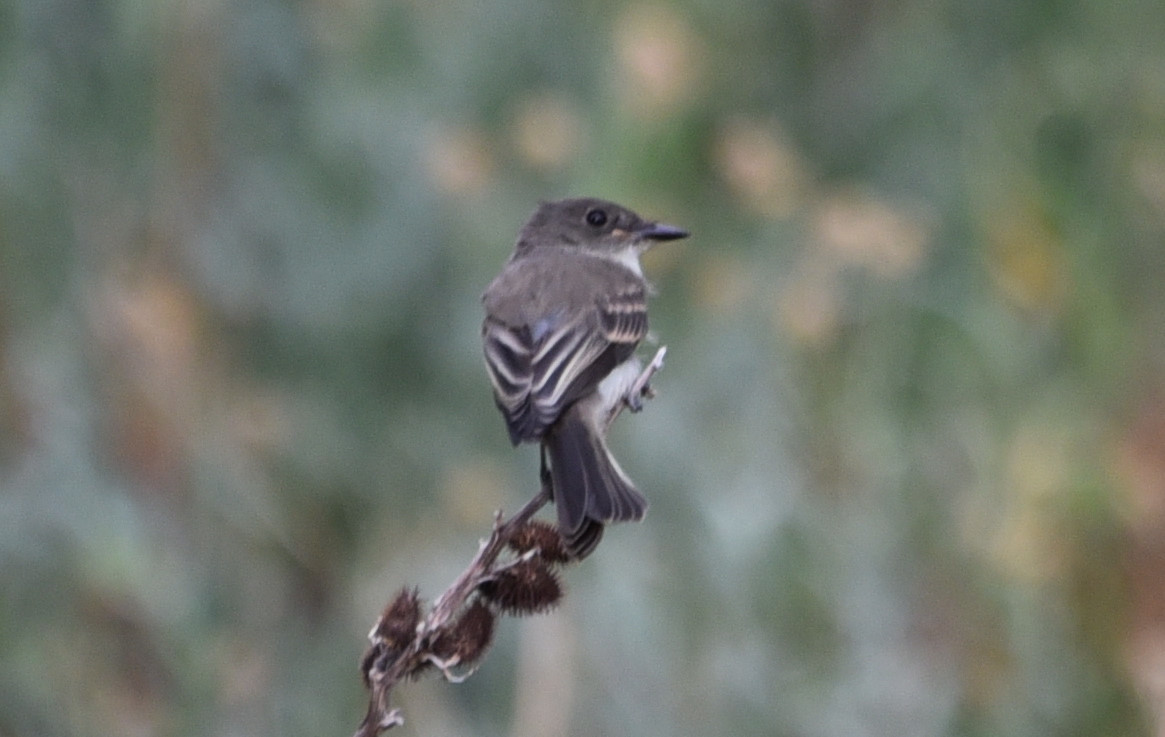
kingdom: Animalia
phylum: Chordata
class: Aves
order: Passeriformes
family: Tyrannidae
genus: Sayornis
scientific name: Sayornis phoebe
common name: Eastern phoebe
